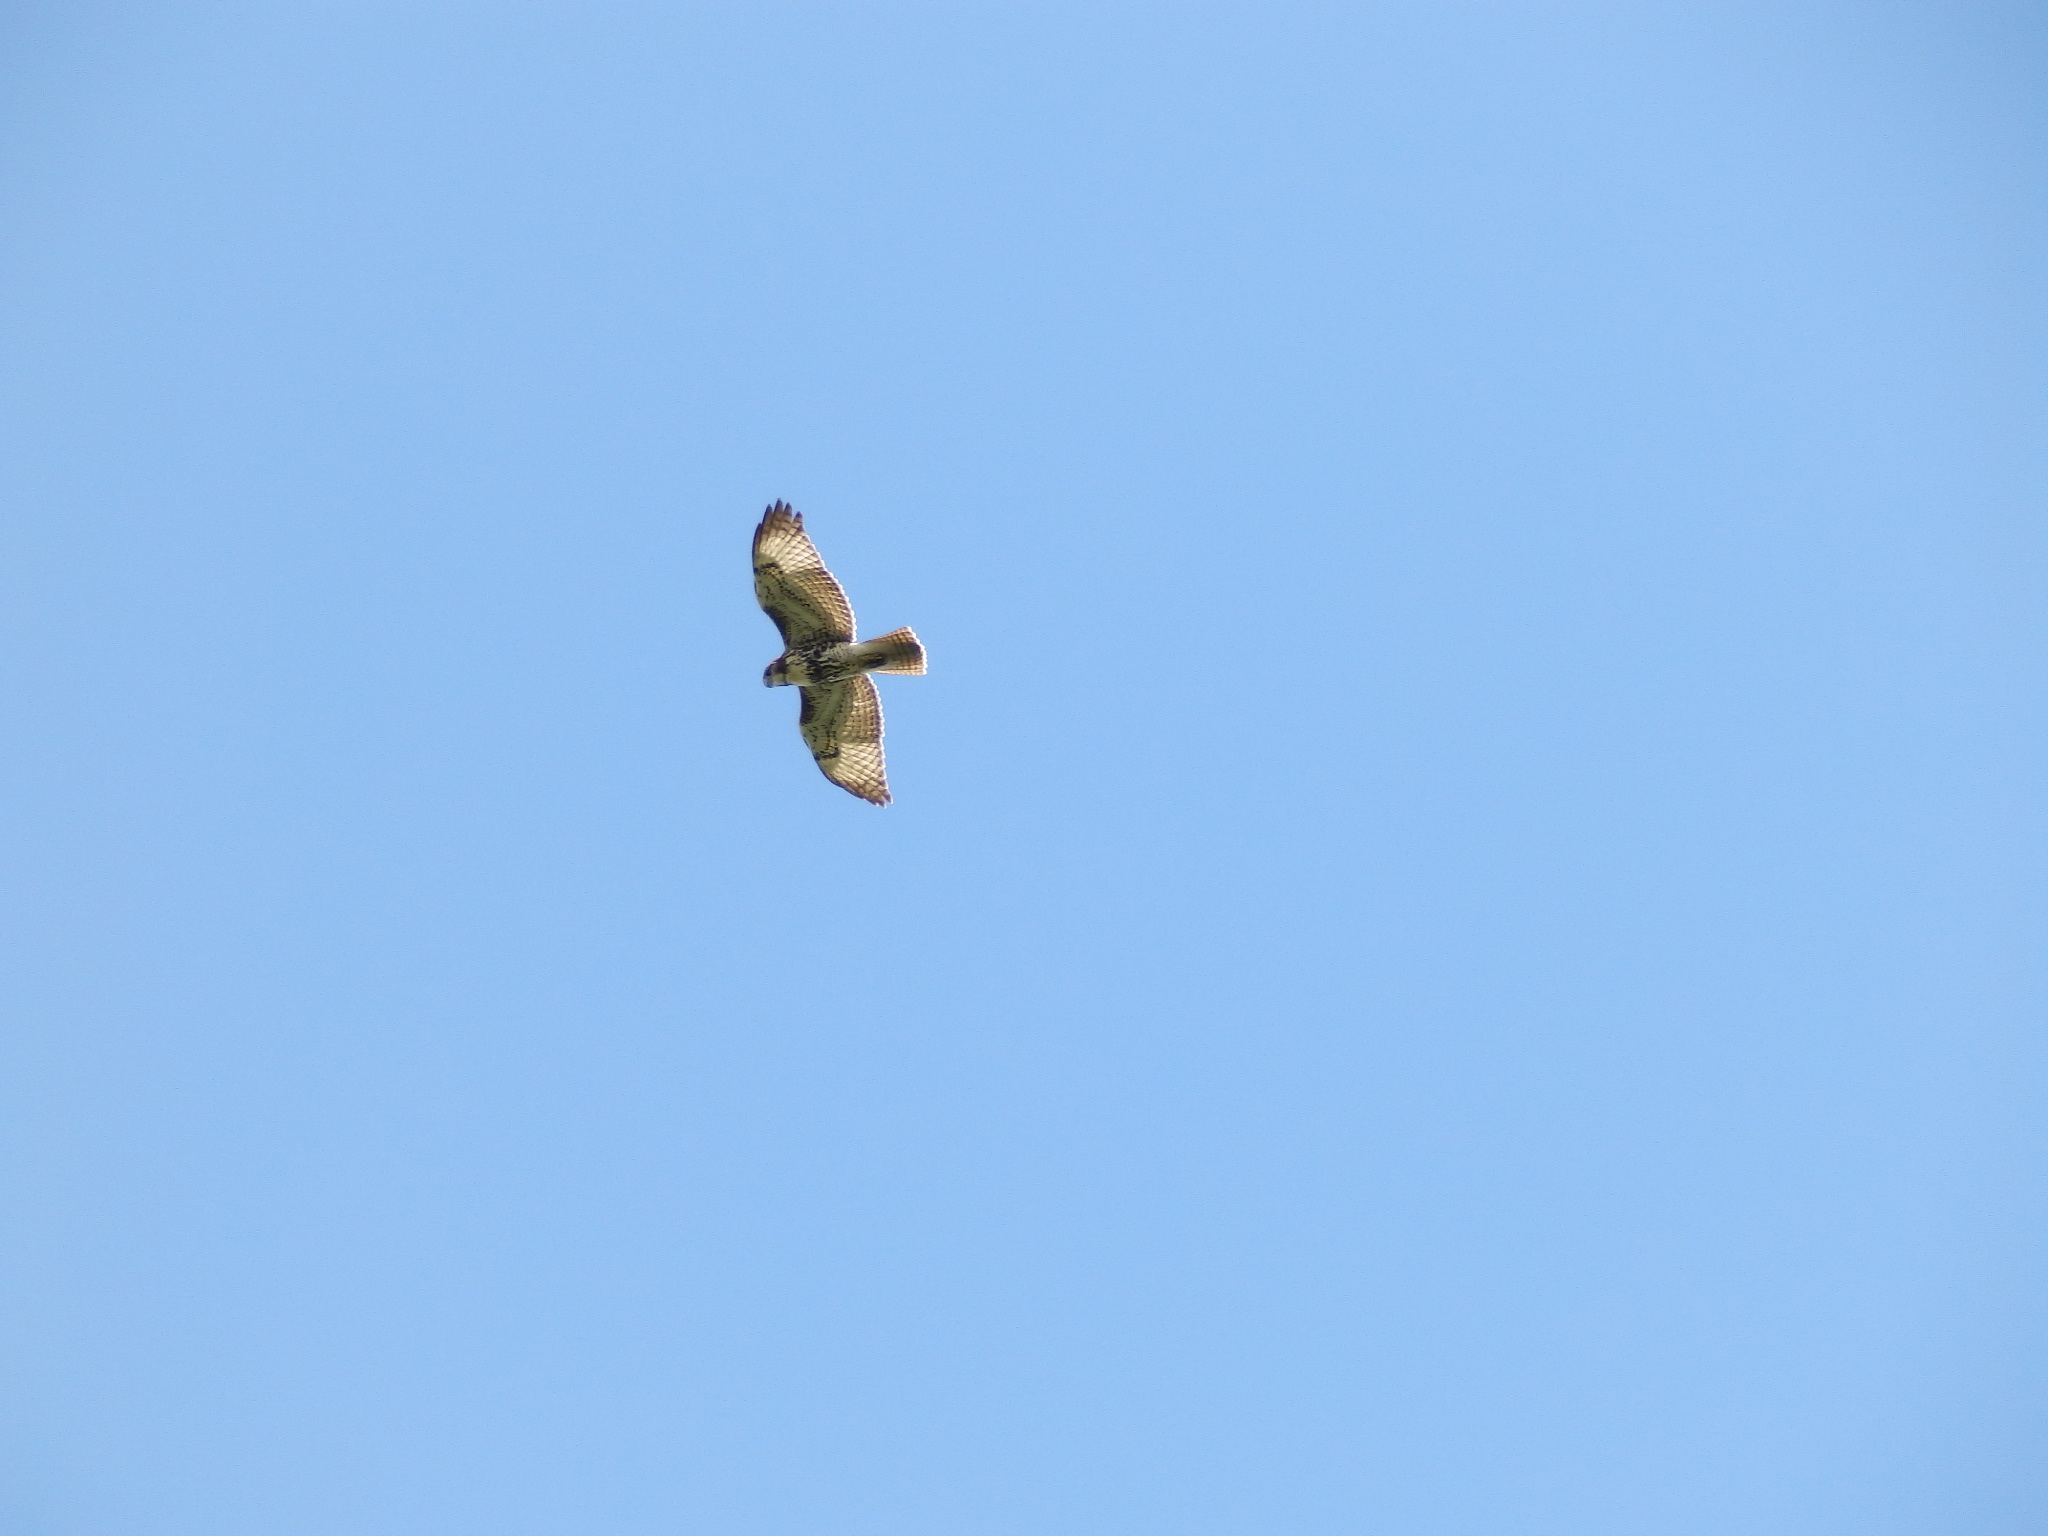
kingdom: Animalia
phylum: Chordata
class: Aves
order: Accipitriformes
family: Accipitridae
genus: Buteo
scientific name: Buteo jamaicensis
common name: Red-tailed hawk
